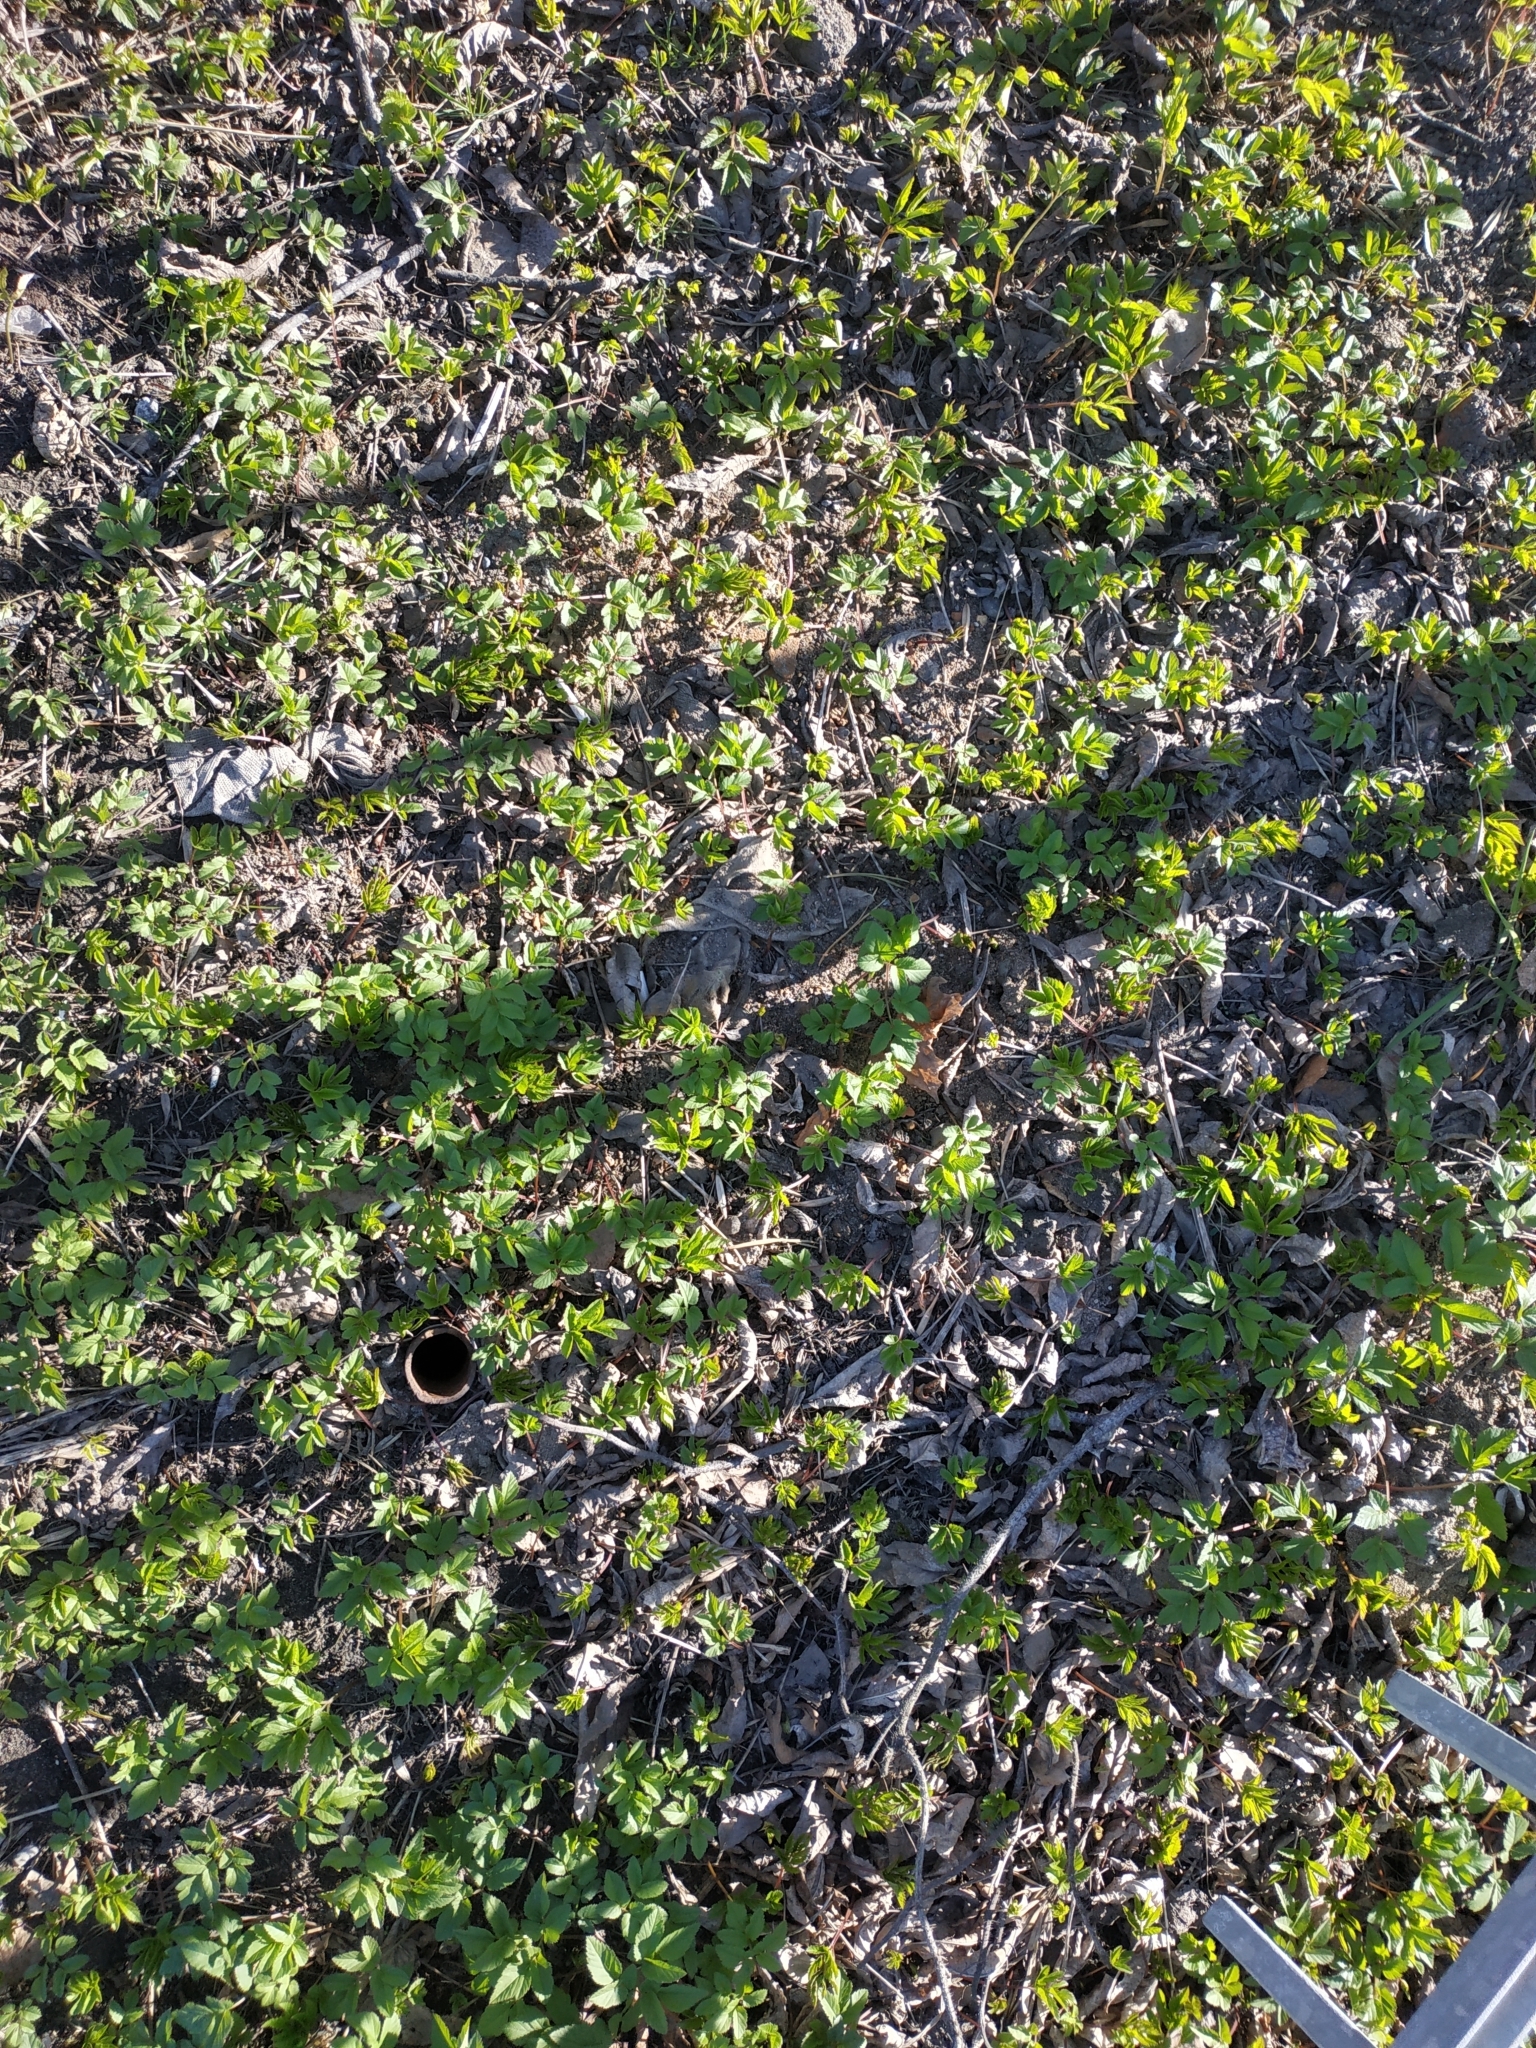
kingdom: Plantae
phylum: Tracheophyta
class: Magnoliopsida
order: Apiales
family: Apiaceae
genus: Aegopodium
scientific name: Aegopodium podagraria
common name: Ground-elder
